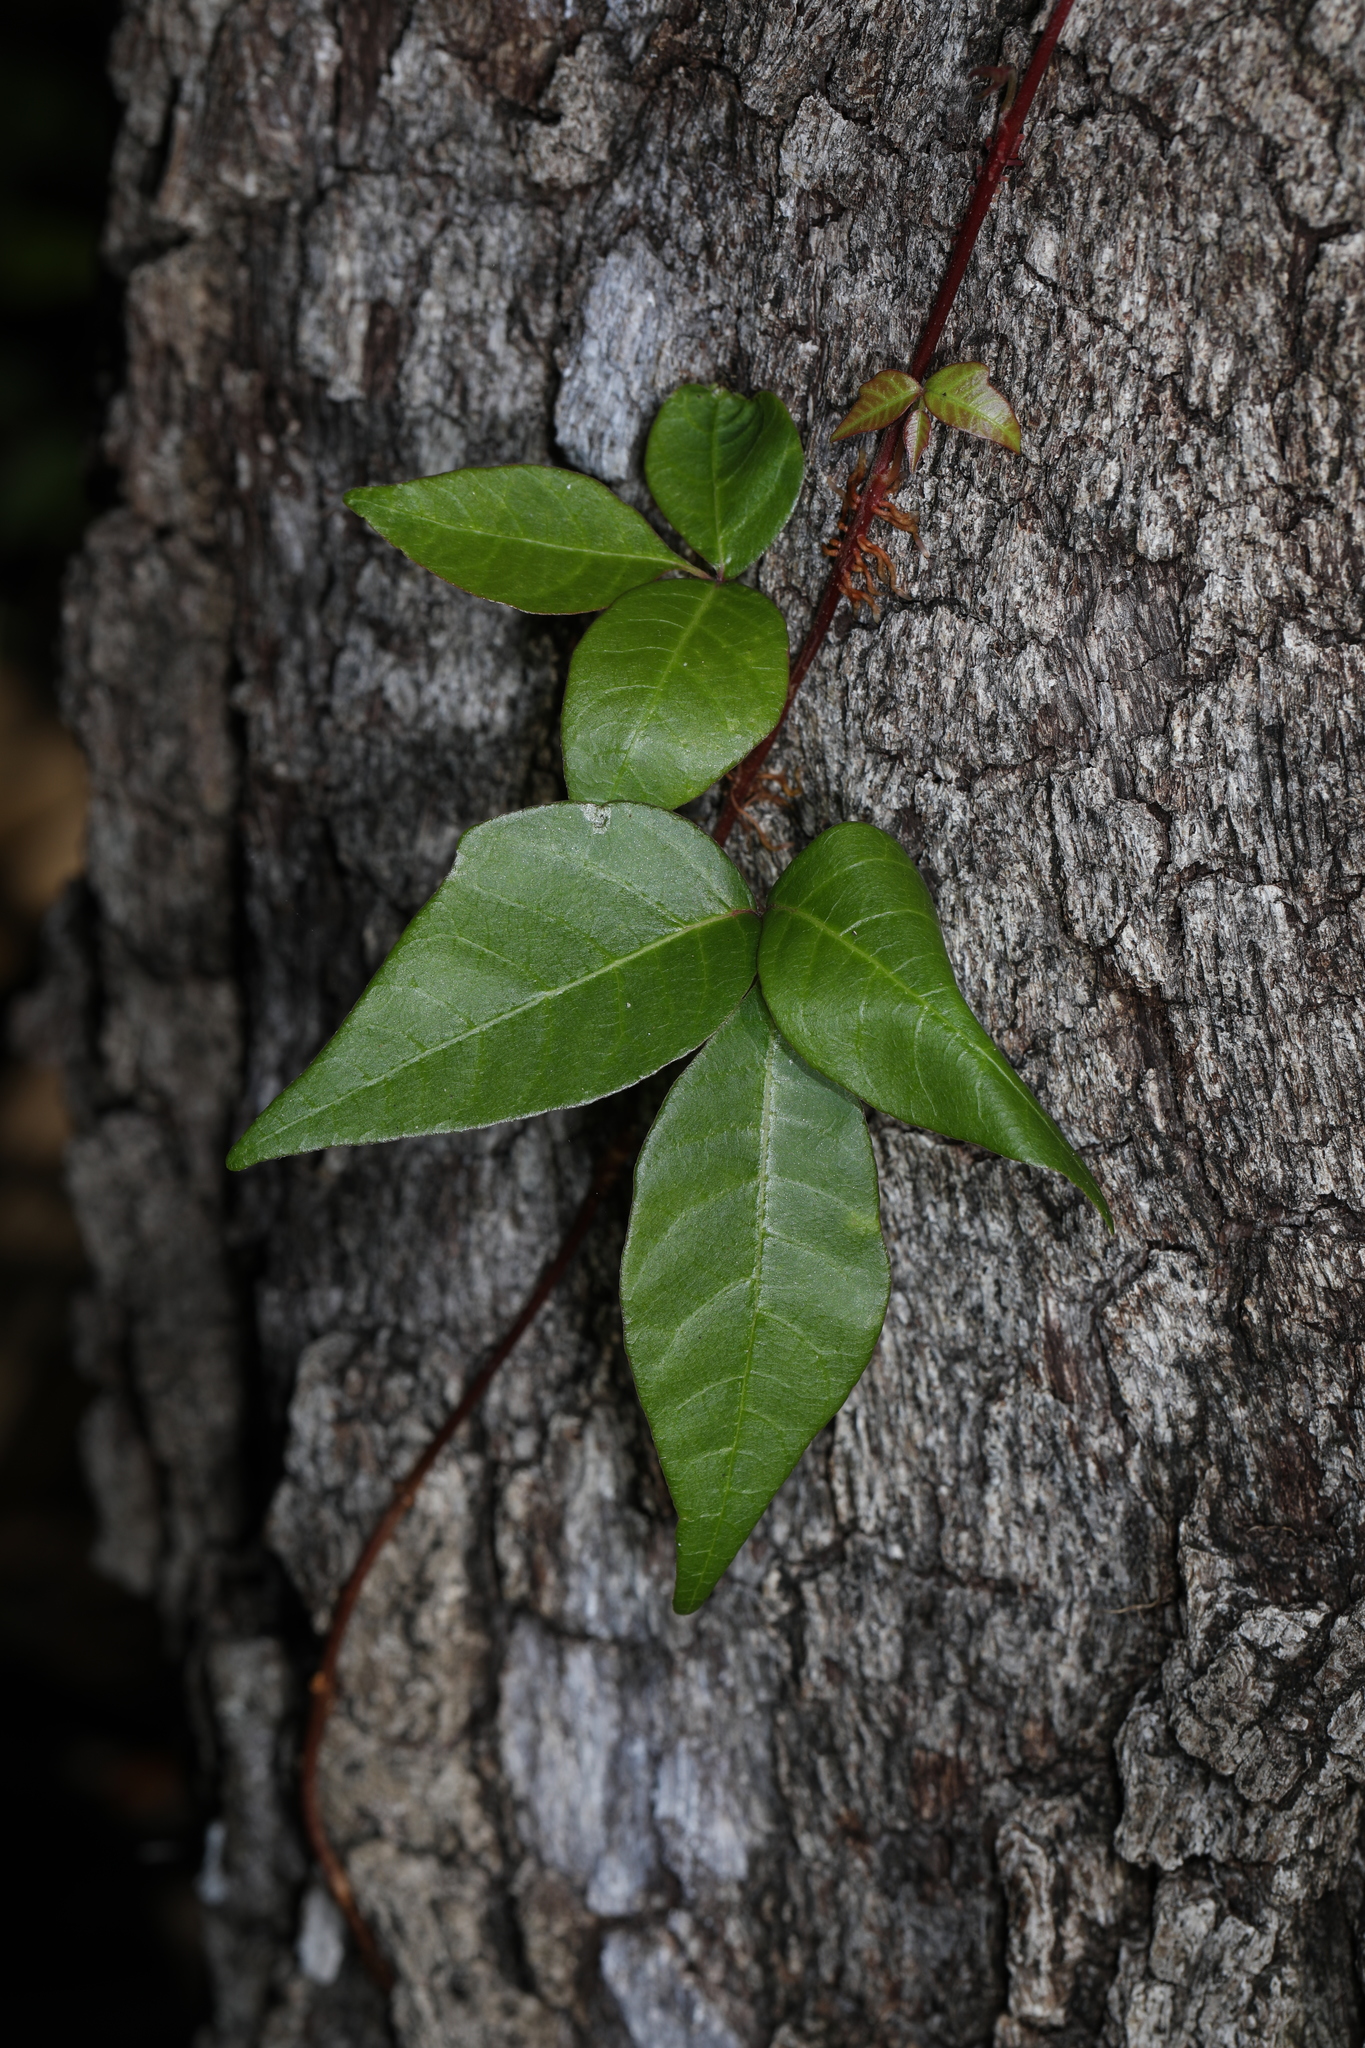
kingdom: Plantae
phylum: Tracheophyta
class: Magnoliopsida
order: Sapindales
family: Anacardiaceae
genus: Toxicodendron
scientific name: Toxicodendron radicans
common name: Poison ivy
